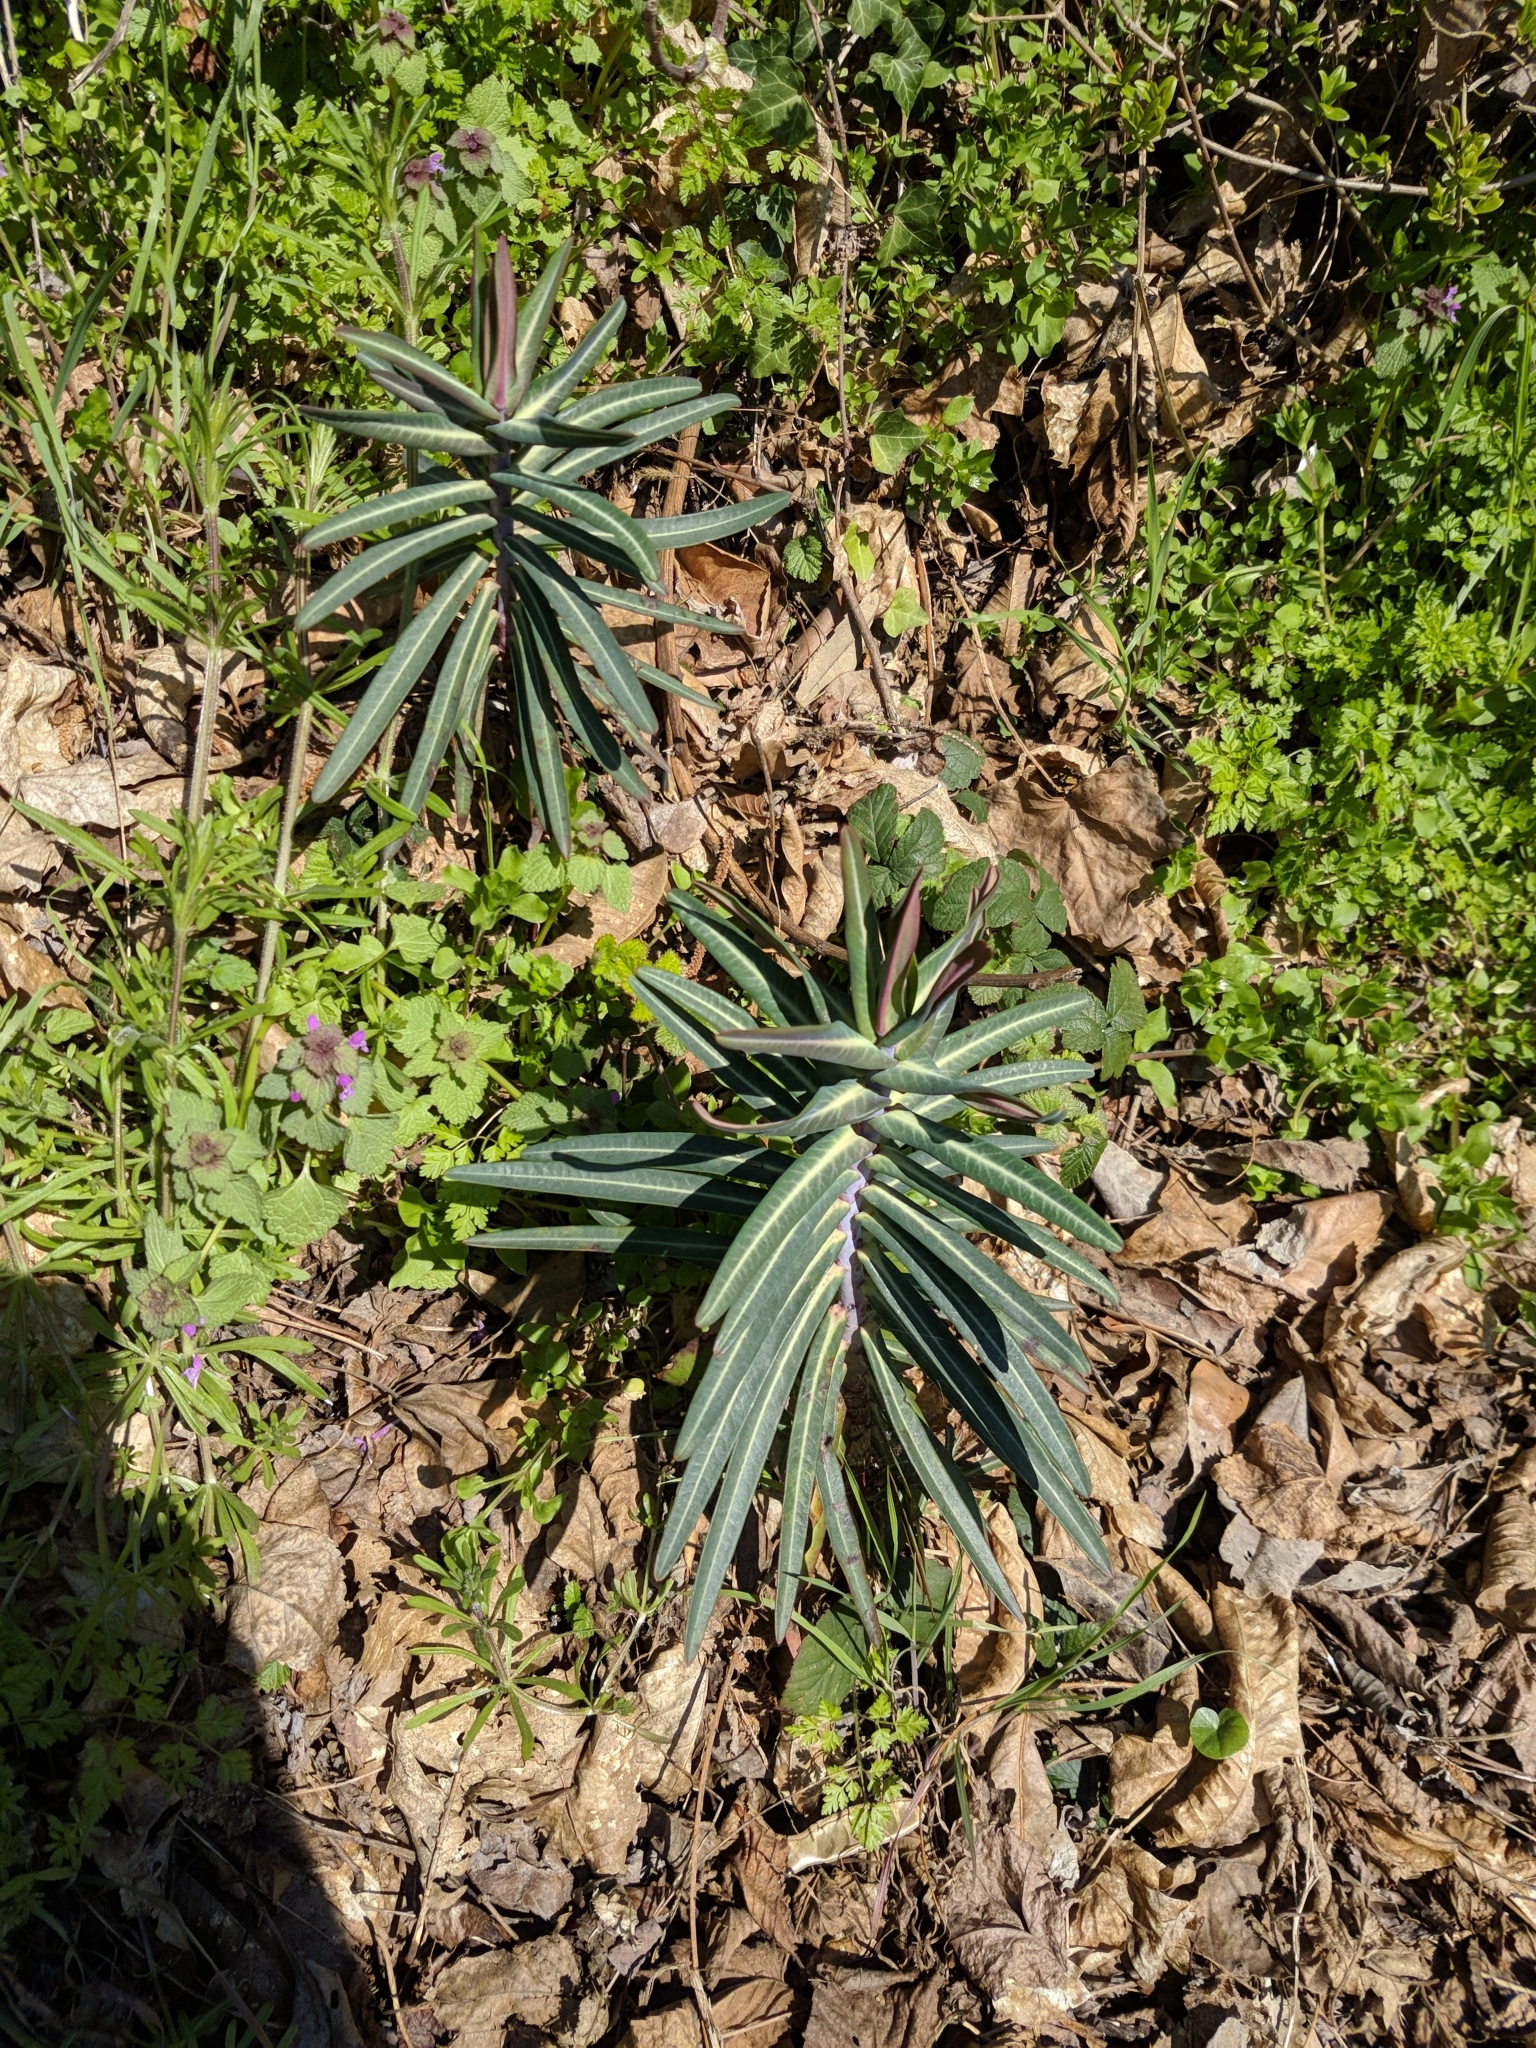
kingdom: Plantae
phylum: Tracheophyta
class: Magnoliopsida
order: Malpighiales
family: Euphorbiaceae
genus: Euphorbia
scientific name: Euphorbia lathyris
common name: Caper spurge
